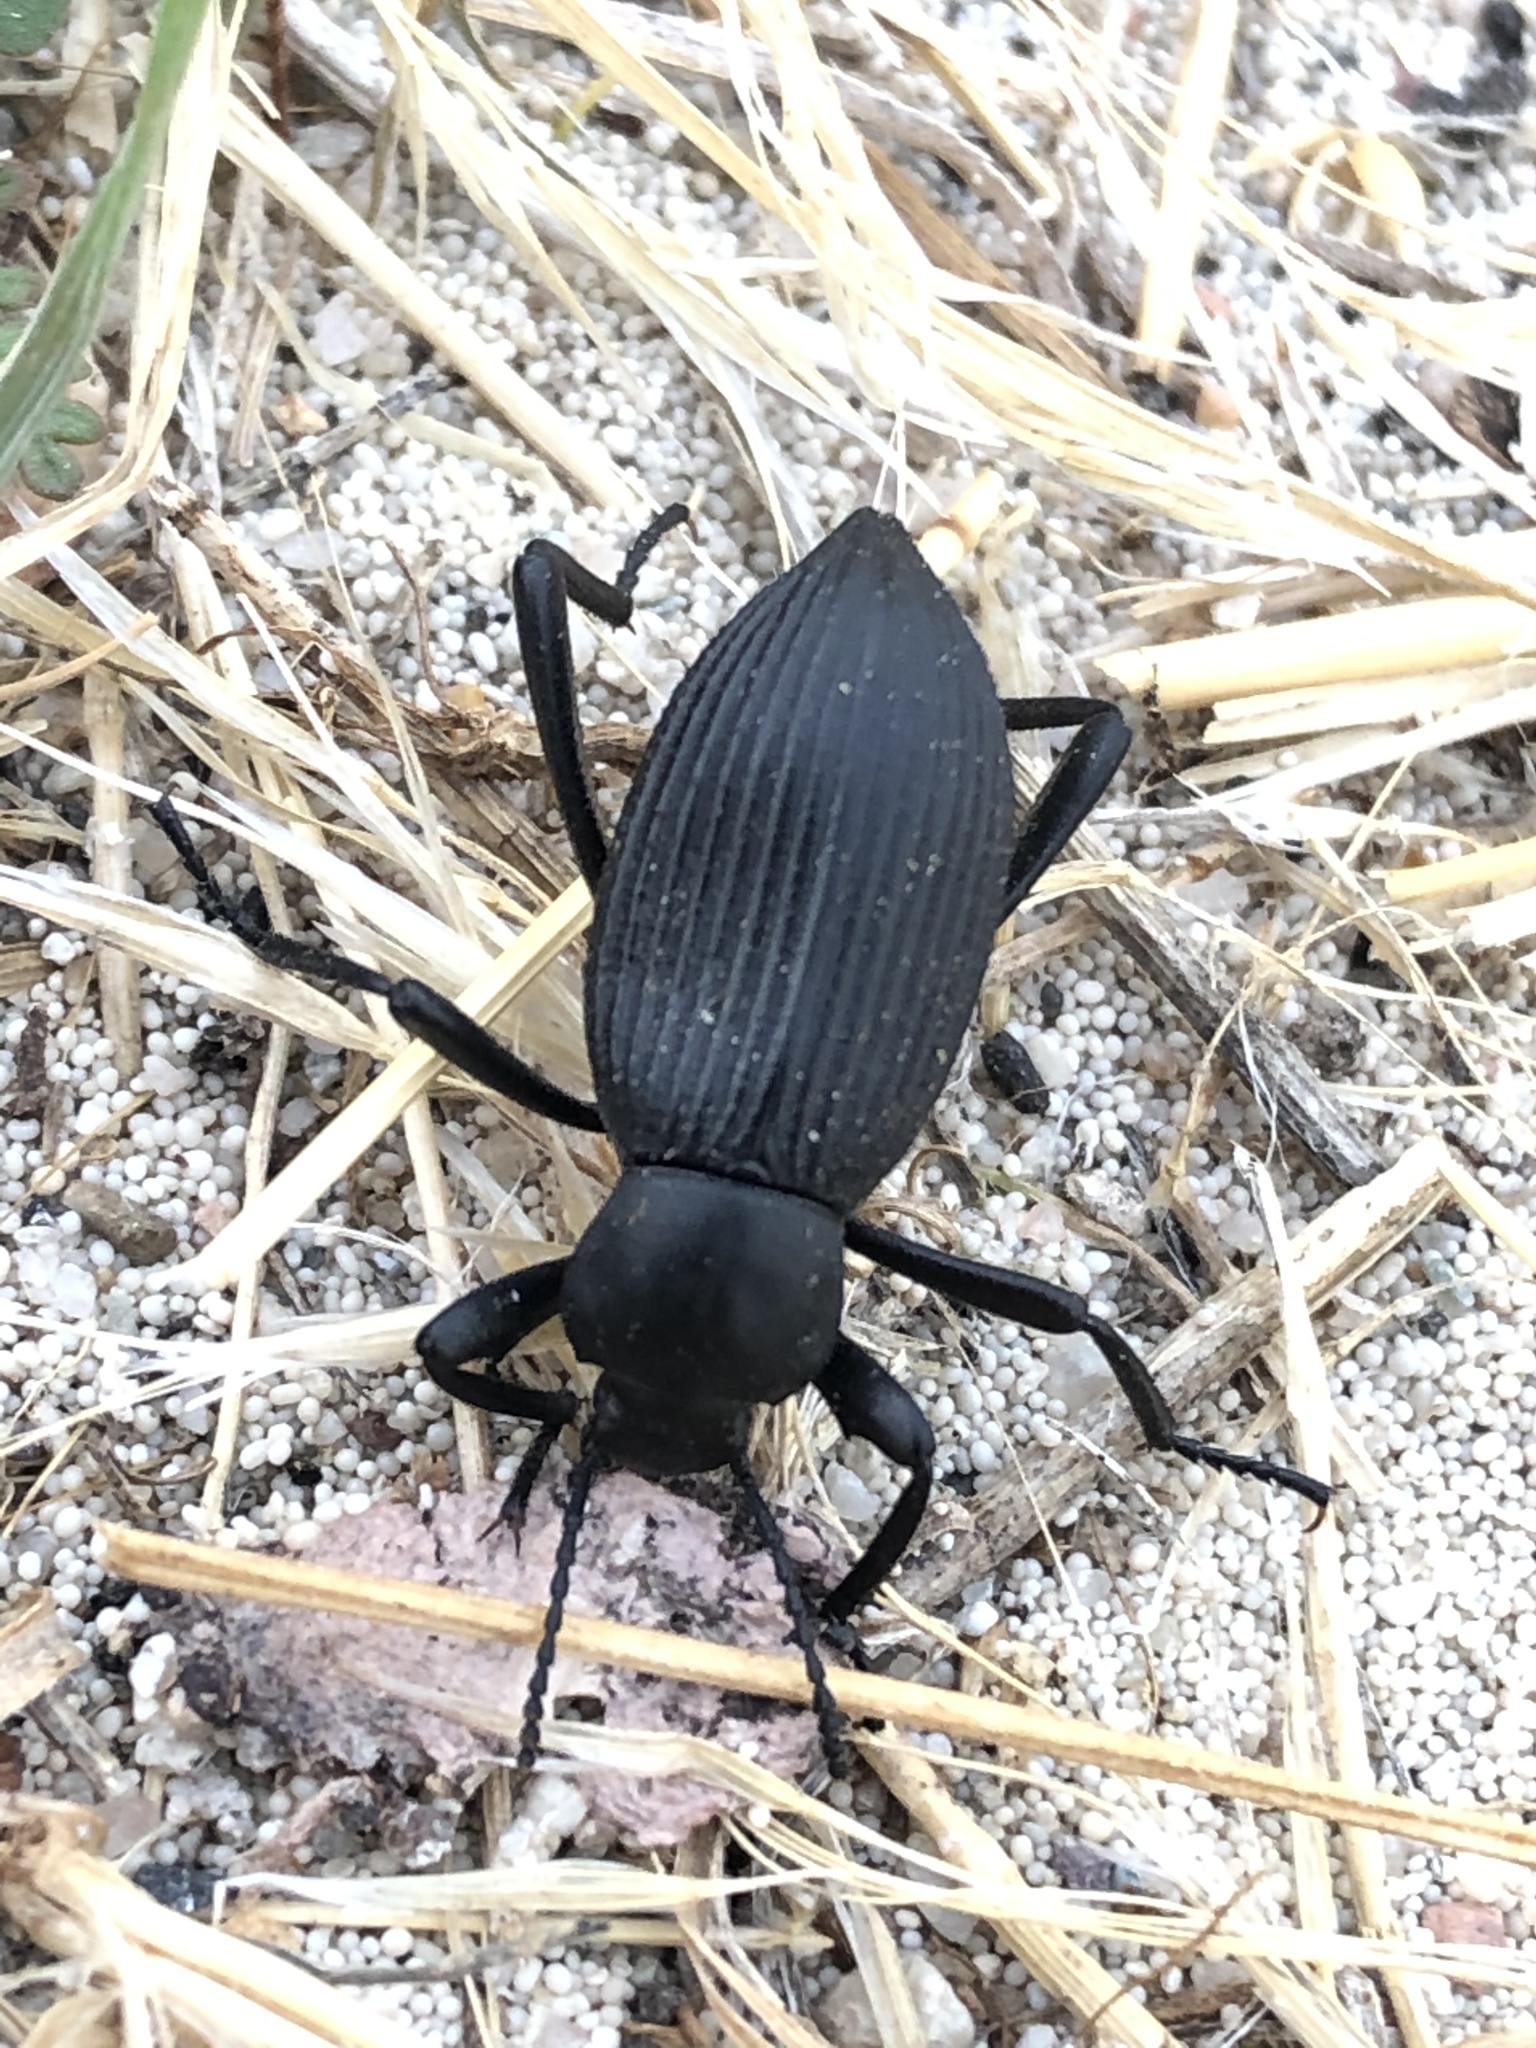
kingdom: Animalia
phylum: Arthropoda
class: Insecta
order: Coleoptera
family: Tenebrionidae
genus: Eleodes
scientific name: Eleodes hispilabris
